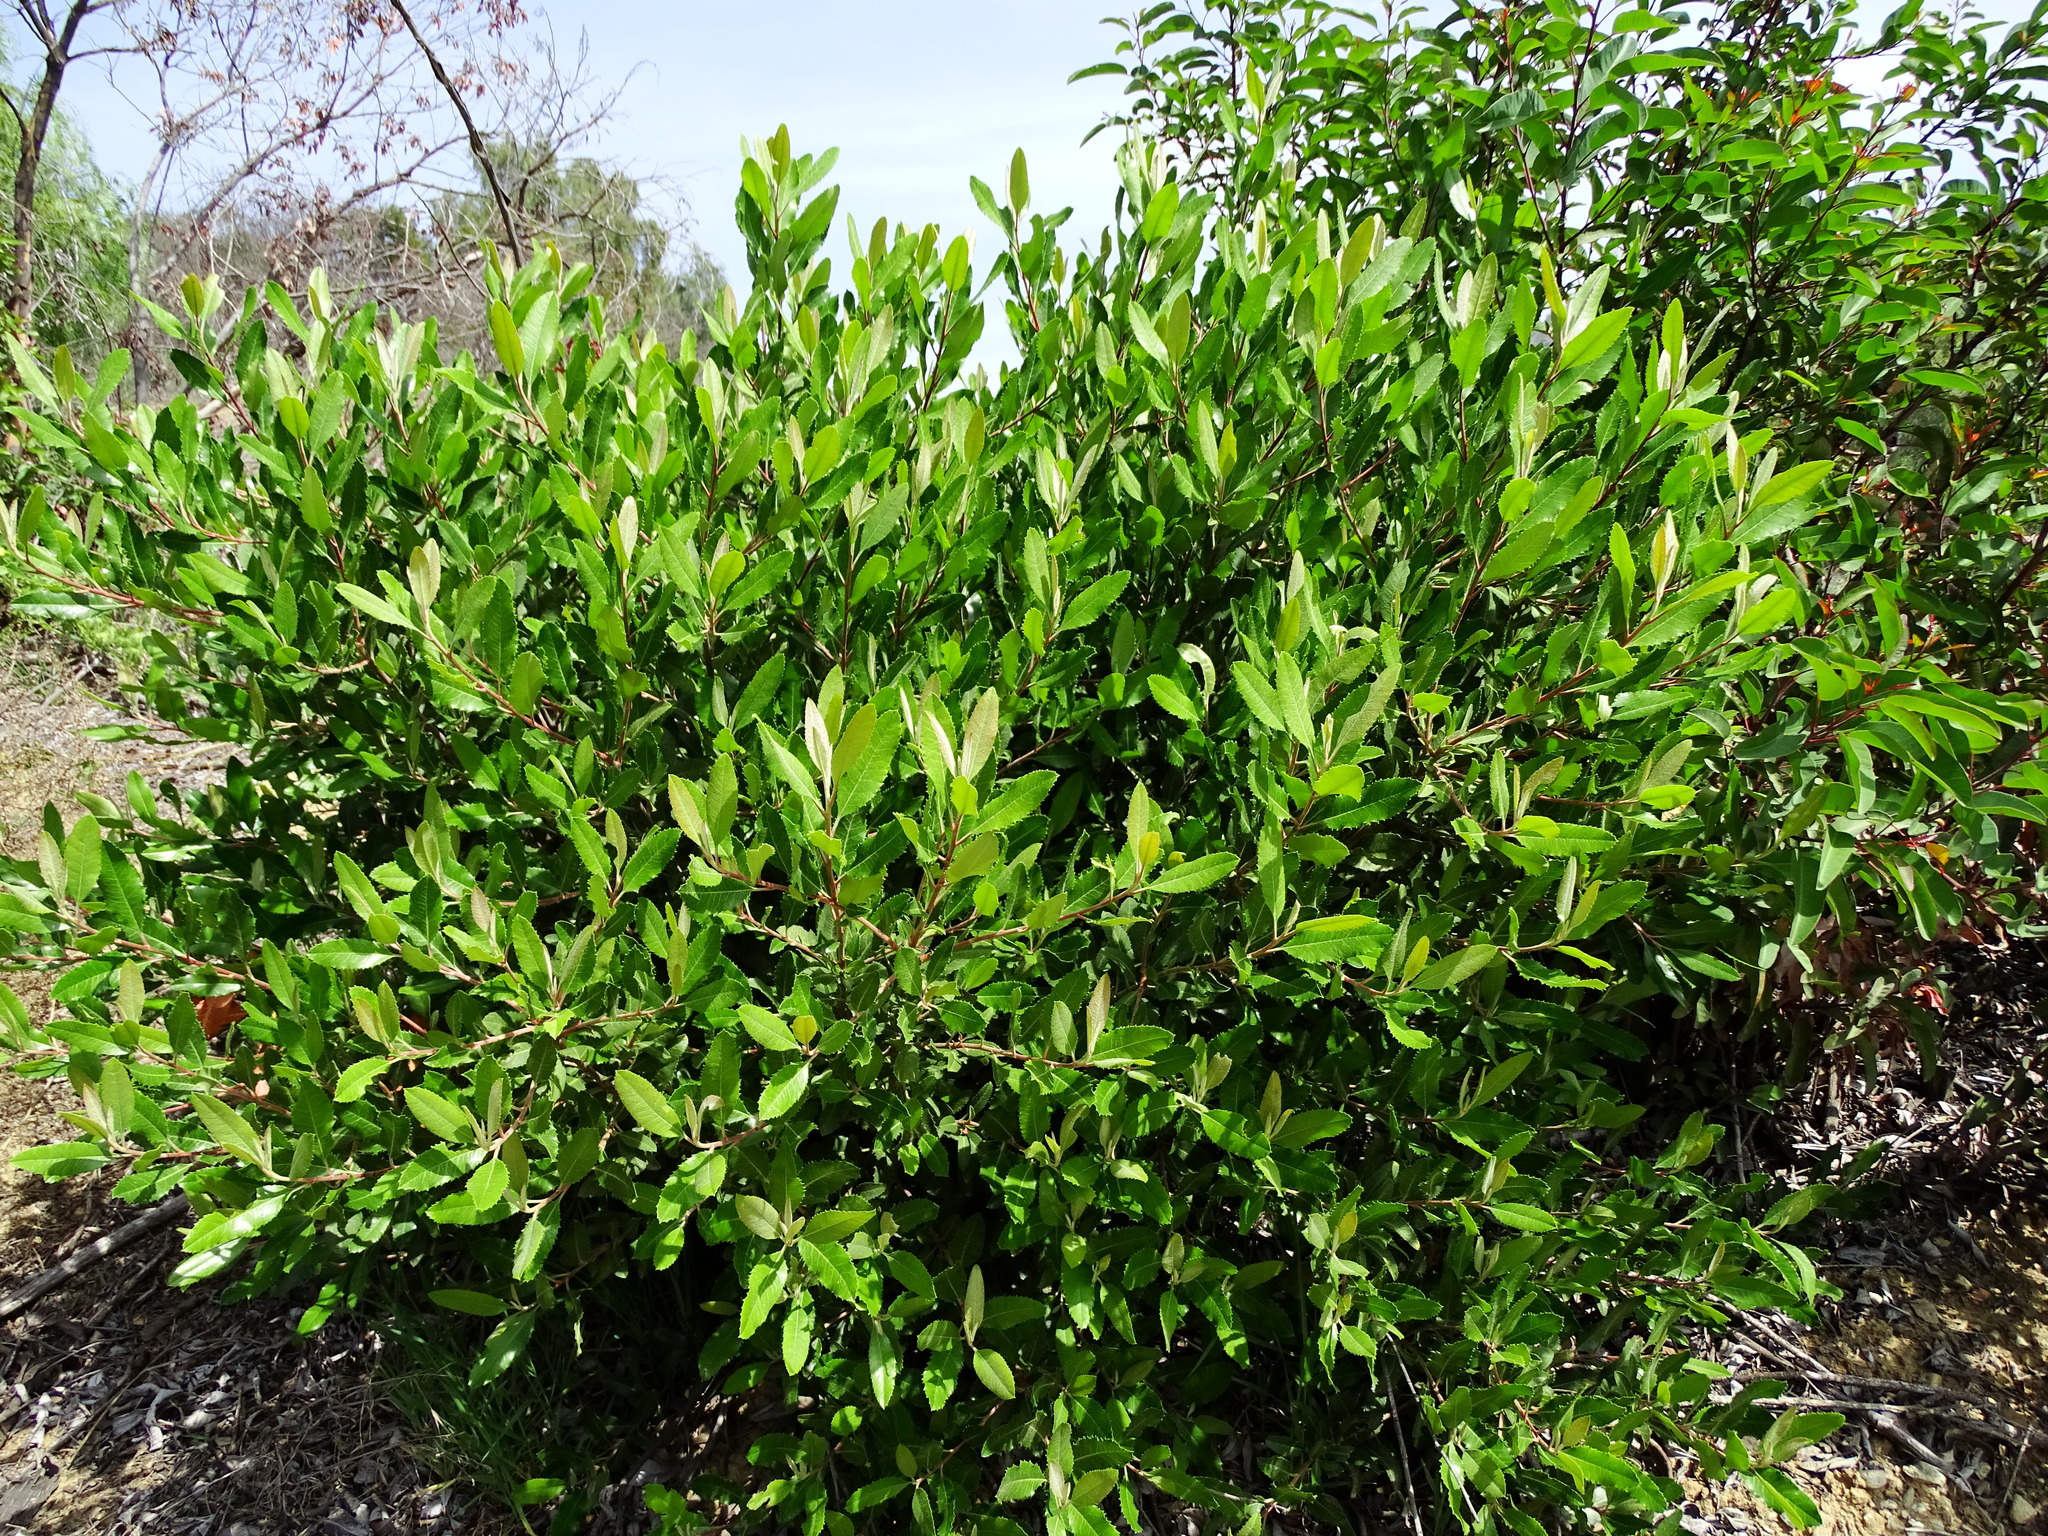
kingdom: Plantae
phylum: Tracheophyta
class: Magnoliopsida
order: Rosales
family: Rosaceae
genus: Heteromeles
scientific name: Heteromeles arbutifolia
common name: California-holly
